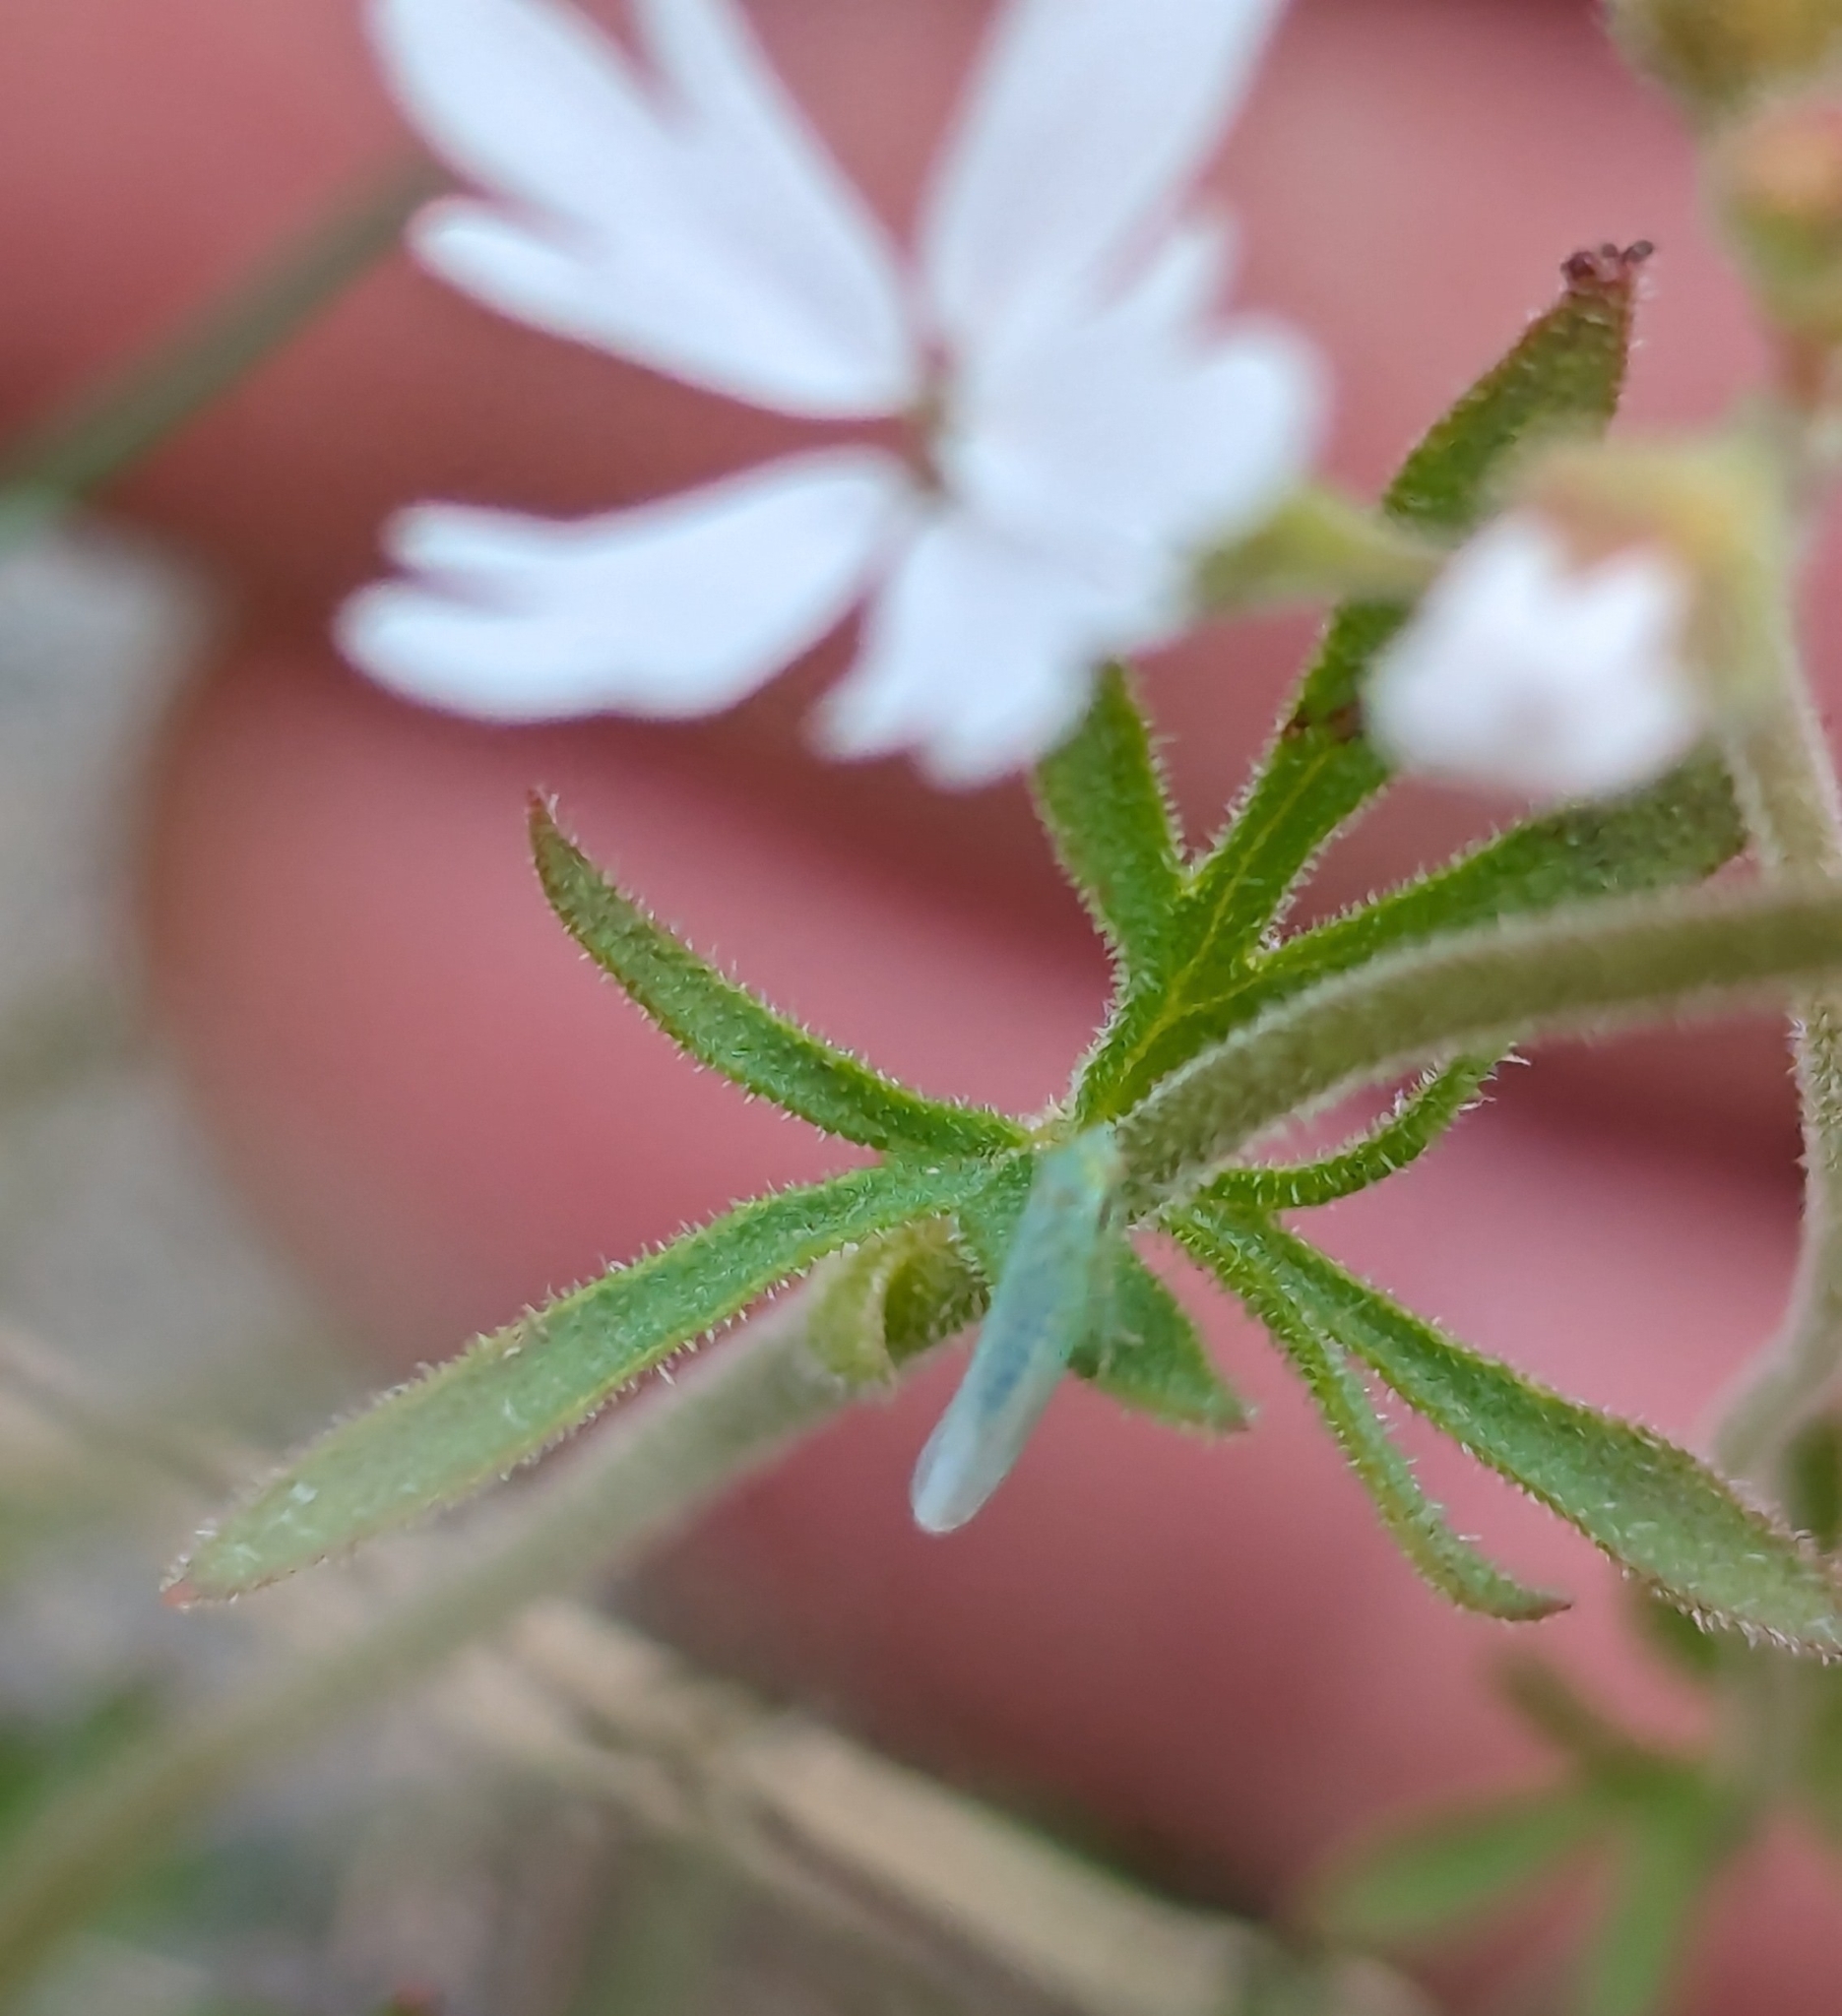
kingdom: Plantae
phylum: Tracheophyta
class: Magnoliopsida
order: Saxifragales
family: Saxifragaceae
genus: Lithophragma
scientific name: Lithophragma parviflorum
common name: Small-flowered fringe-cup
